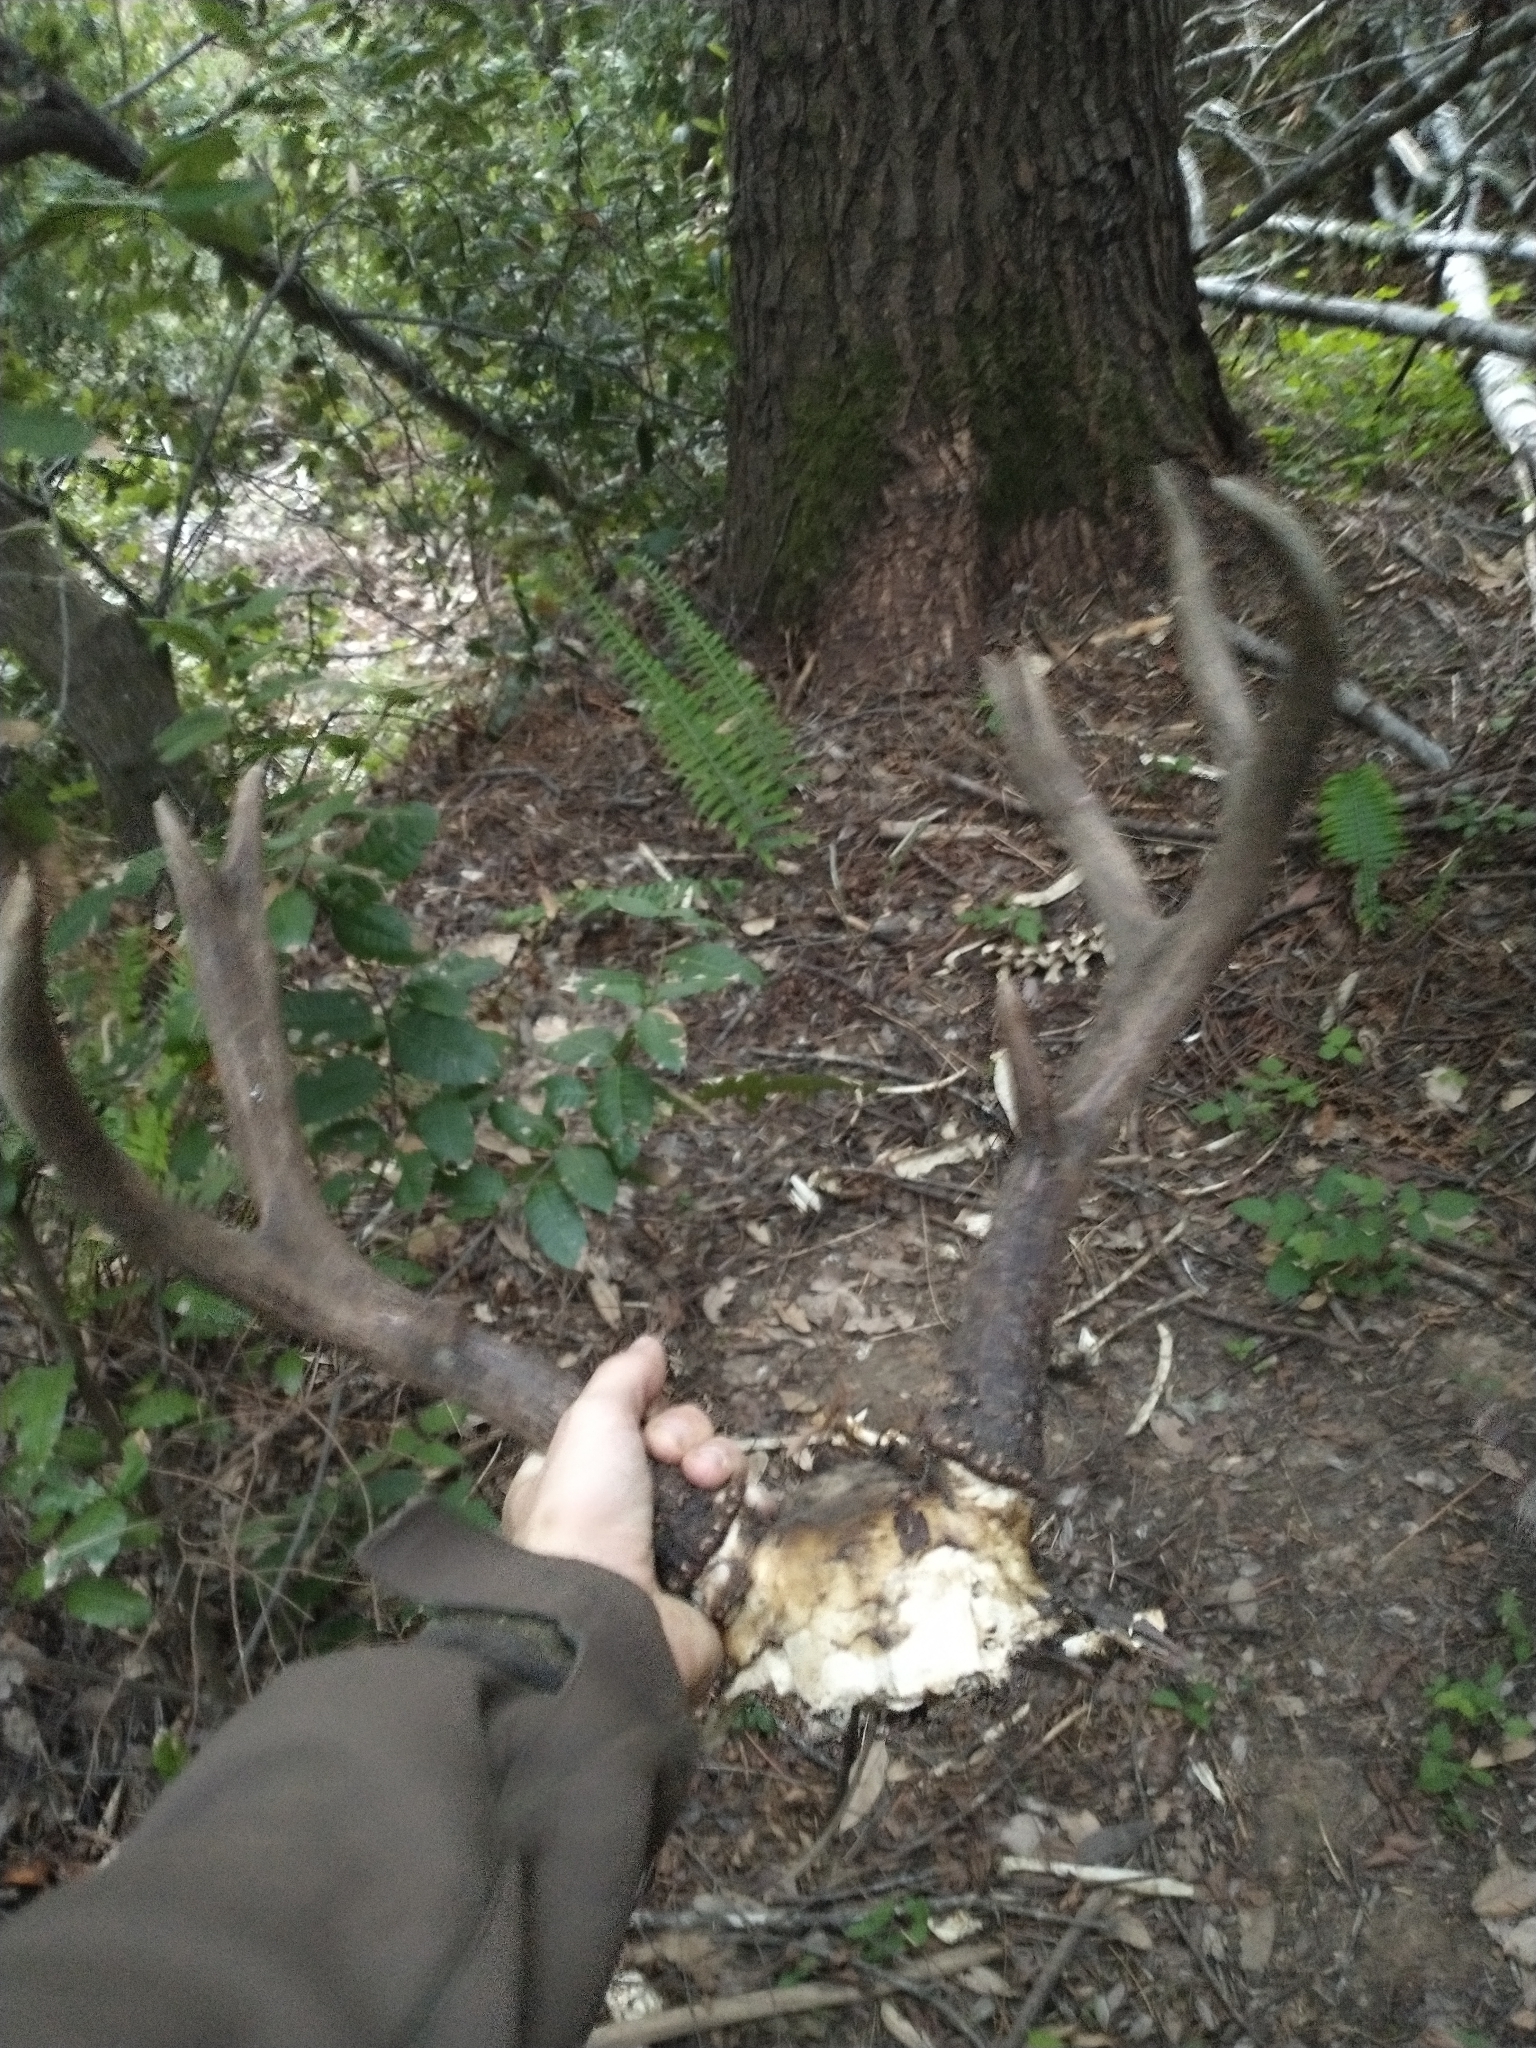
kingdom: Animalia
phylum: Chordata
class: Mammalia
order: Artiodactyla
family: Cervidae
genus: Odocoileus
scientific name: Odocoileus hemionus
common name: Mule deer
